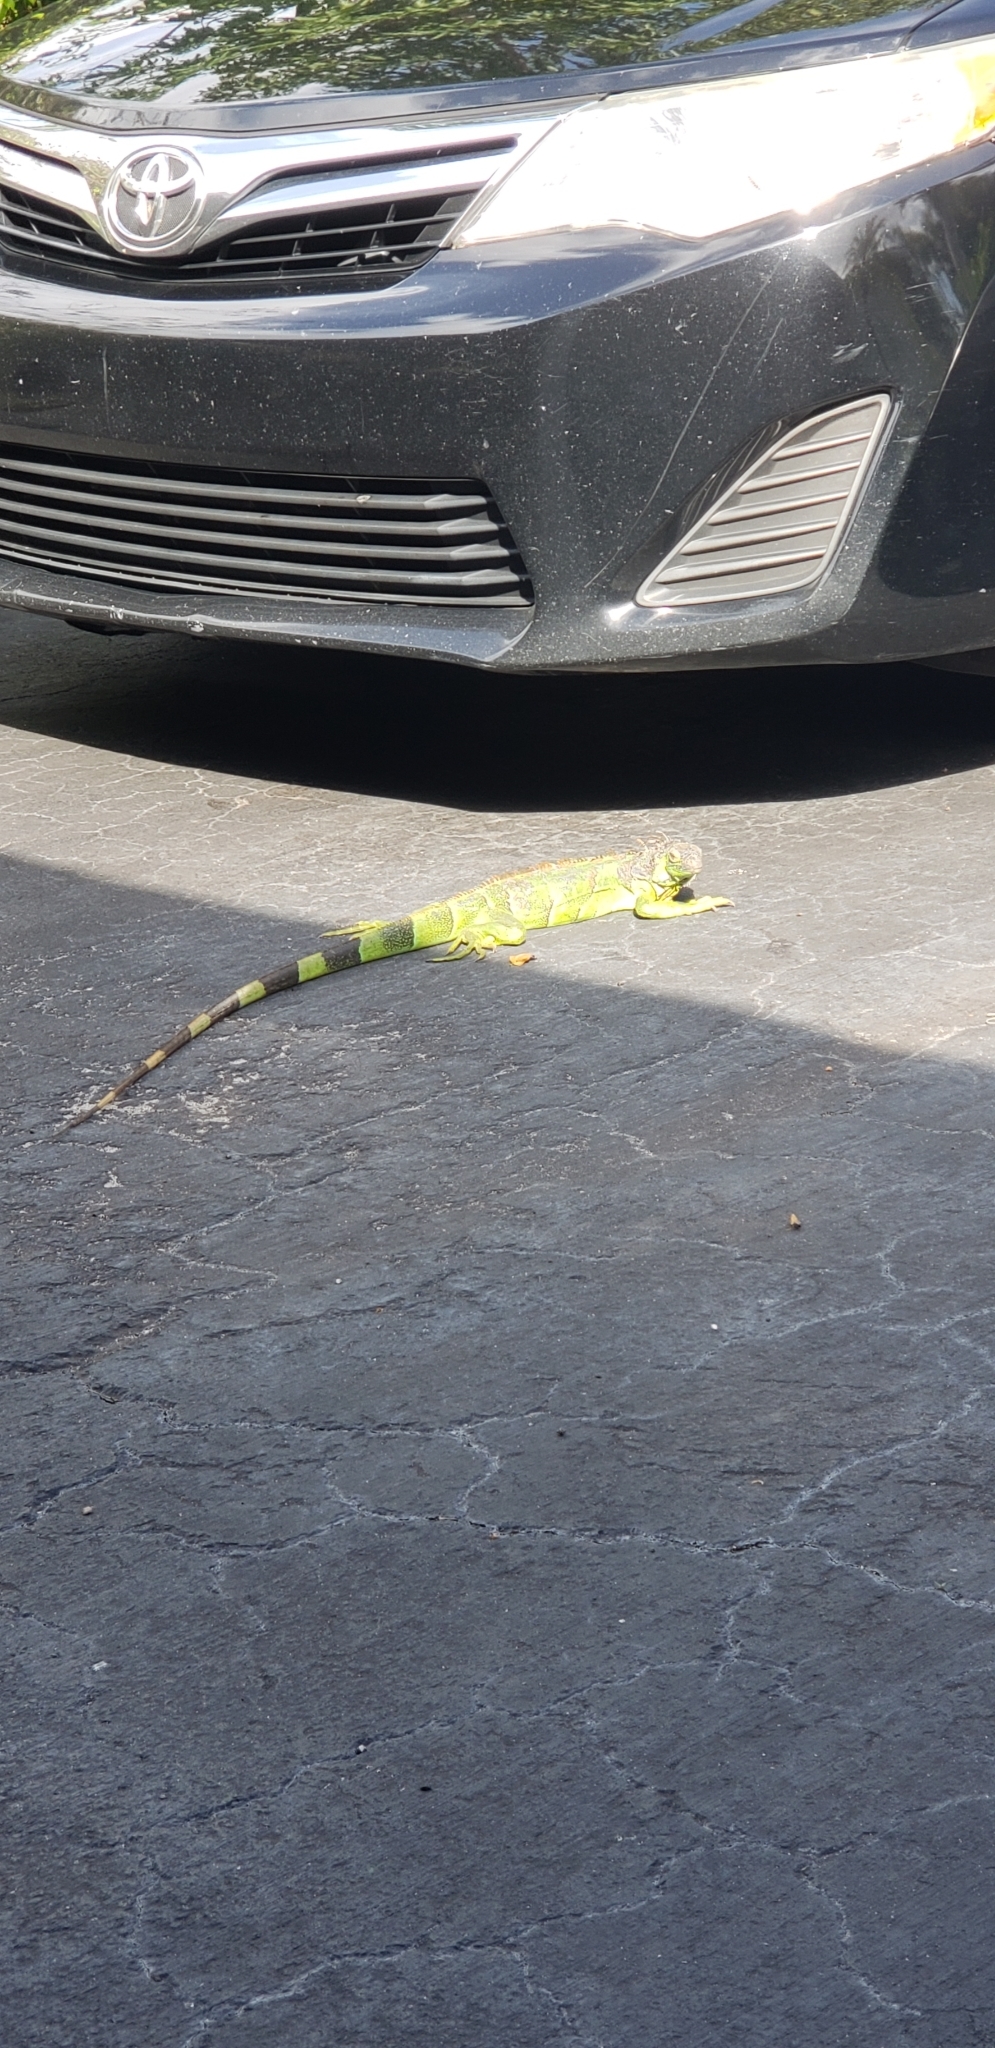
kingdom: Animalia
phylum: Chordata
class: Squamata
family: Iguanidae
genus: Iguana
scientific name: Iguana iguana
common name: Green iguana
